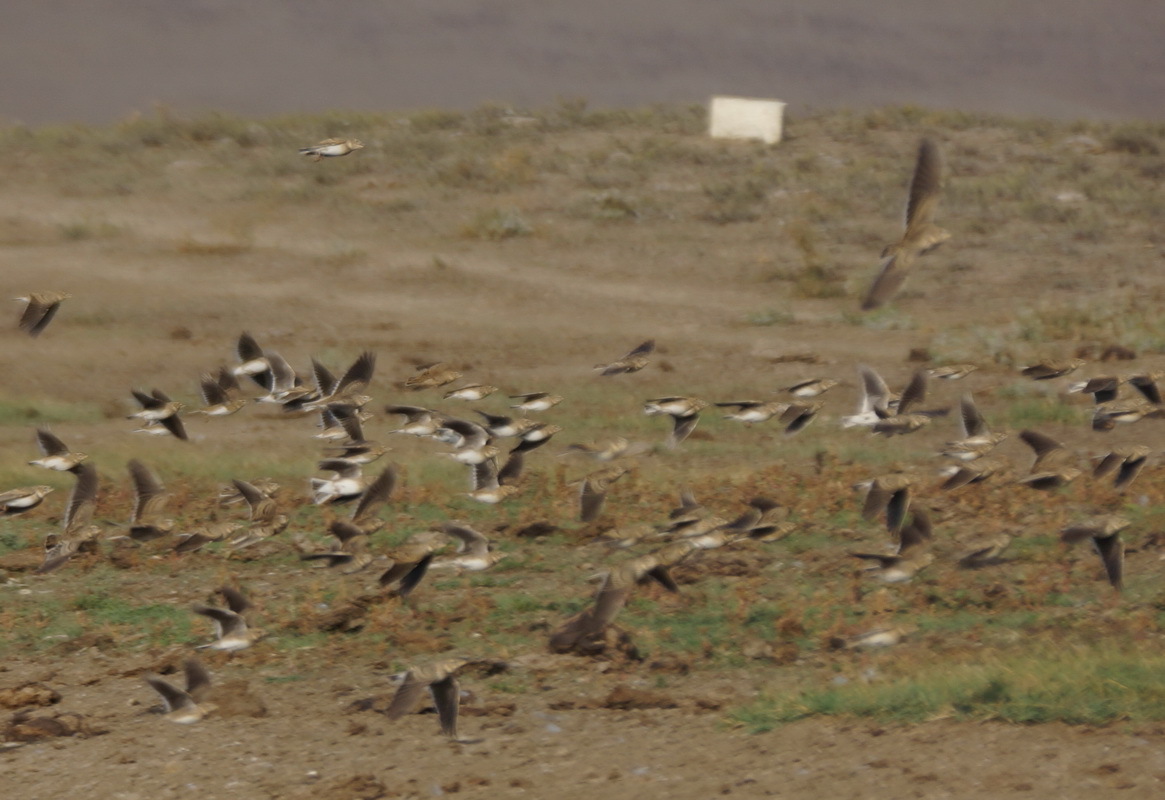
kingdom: Animalia
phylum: Chordata
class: Aves
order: Passeriformes
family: Alaudidae
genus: Melanocorypha
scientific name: Melanocorypha calandra
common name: Calandra lark
